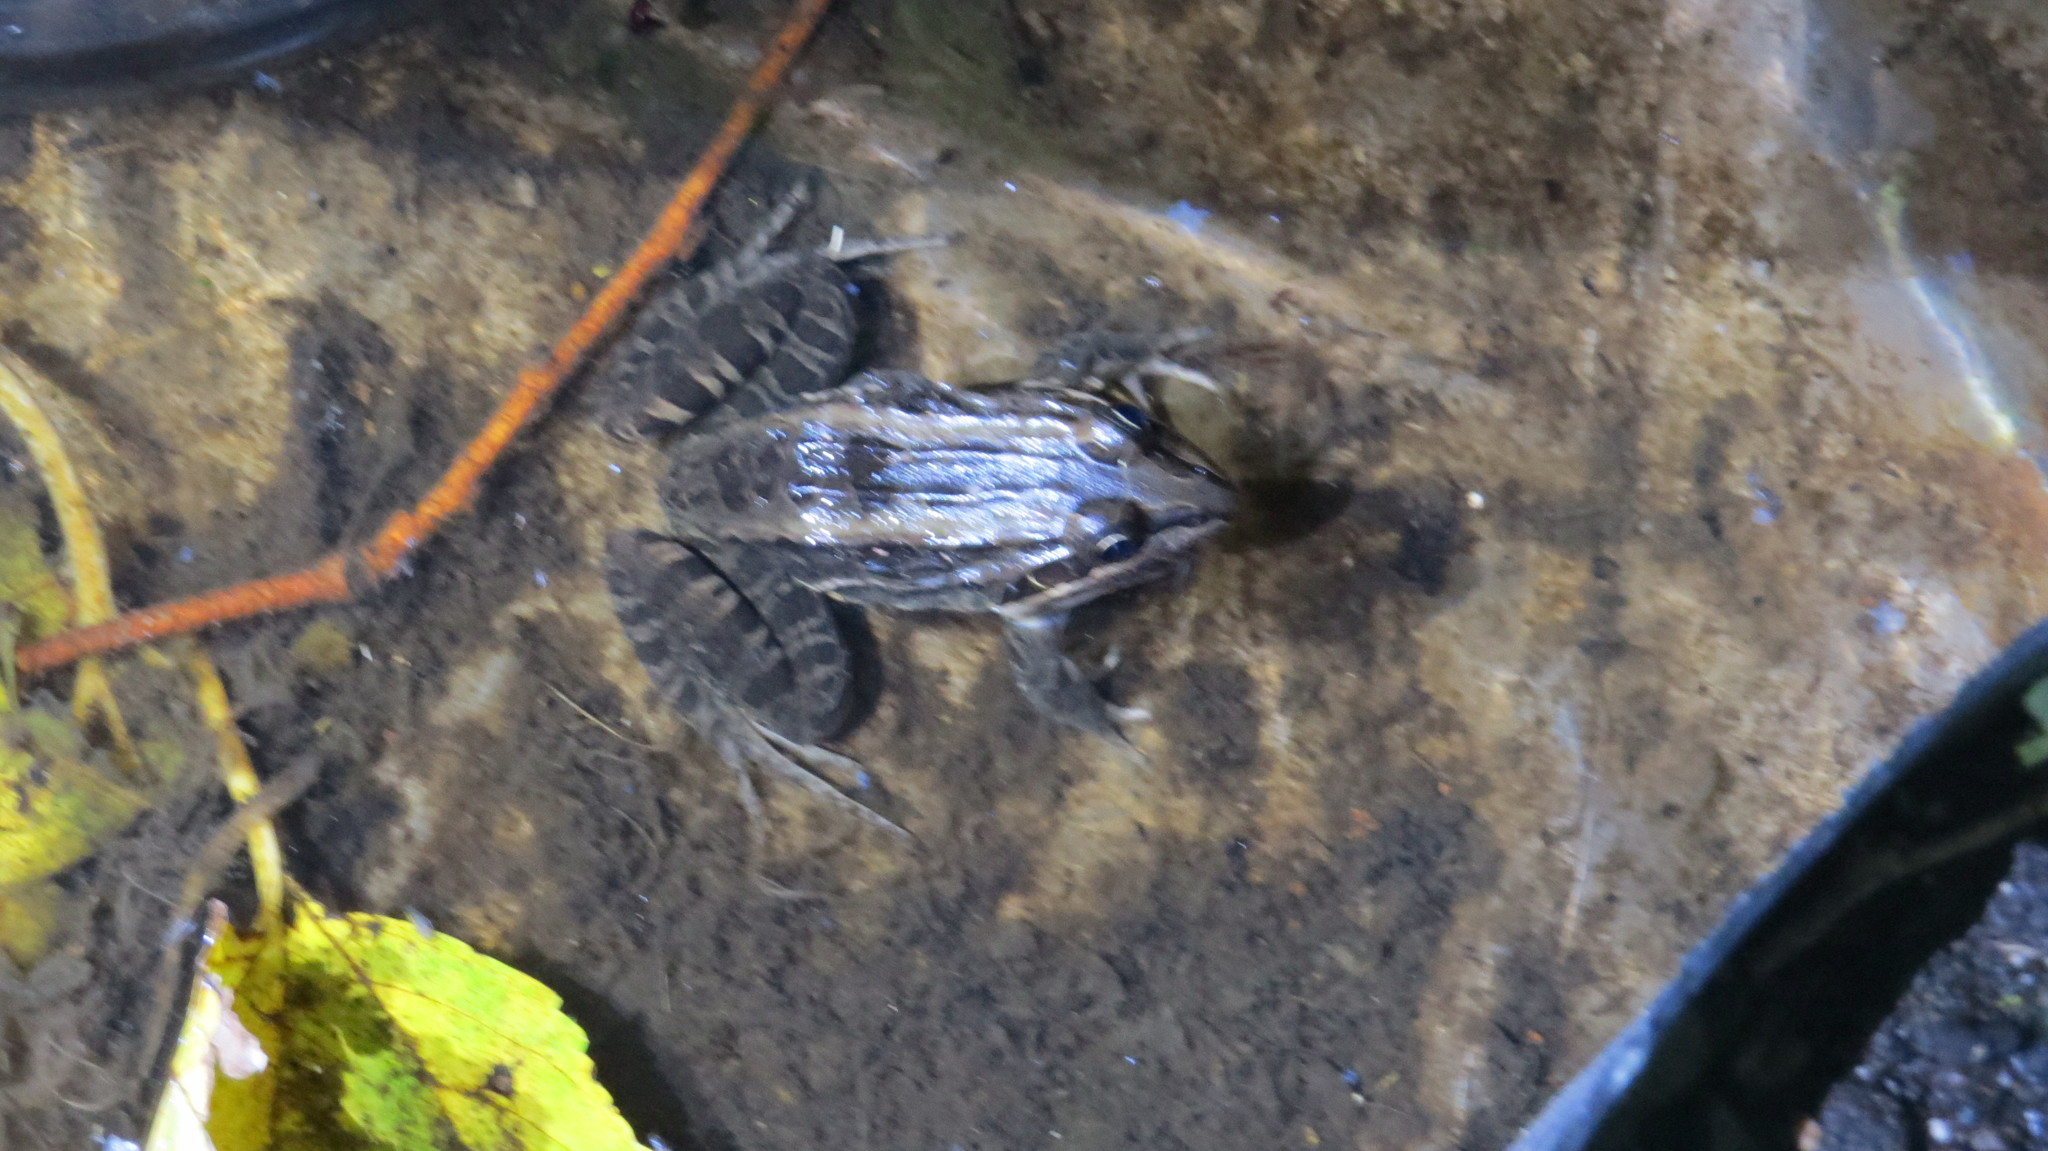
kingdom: Animalia
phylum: Chordata
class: Amphibia
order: Anura
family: Leptodactylidae
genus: Leptodactylus
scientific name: Leptodactylus luctator
